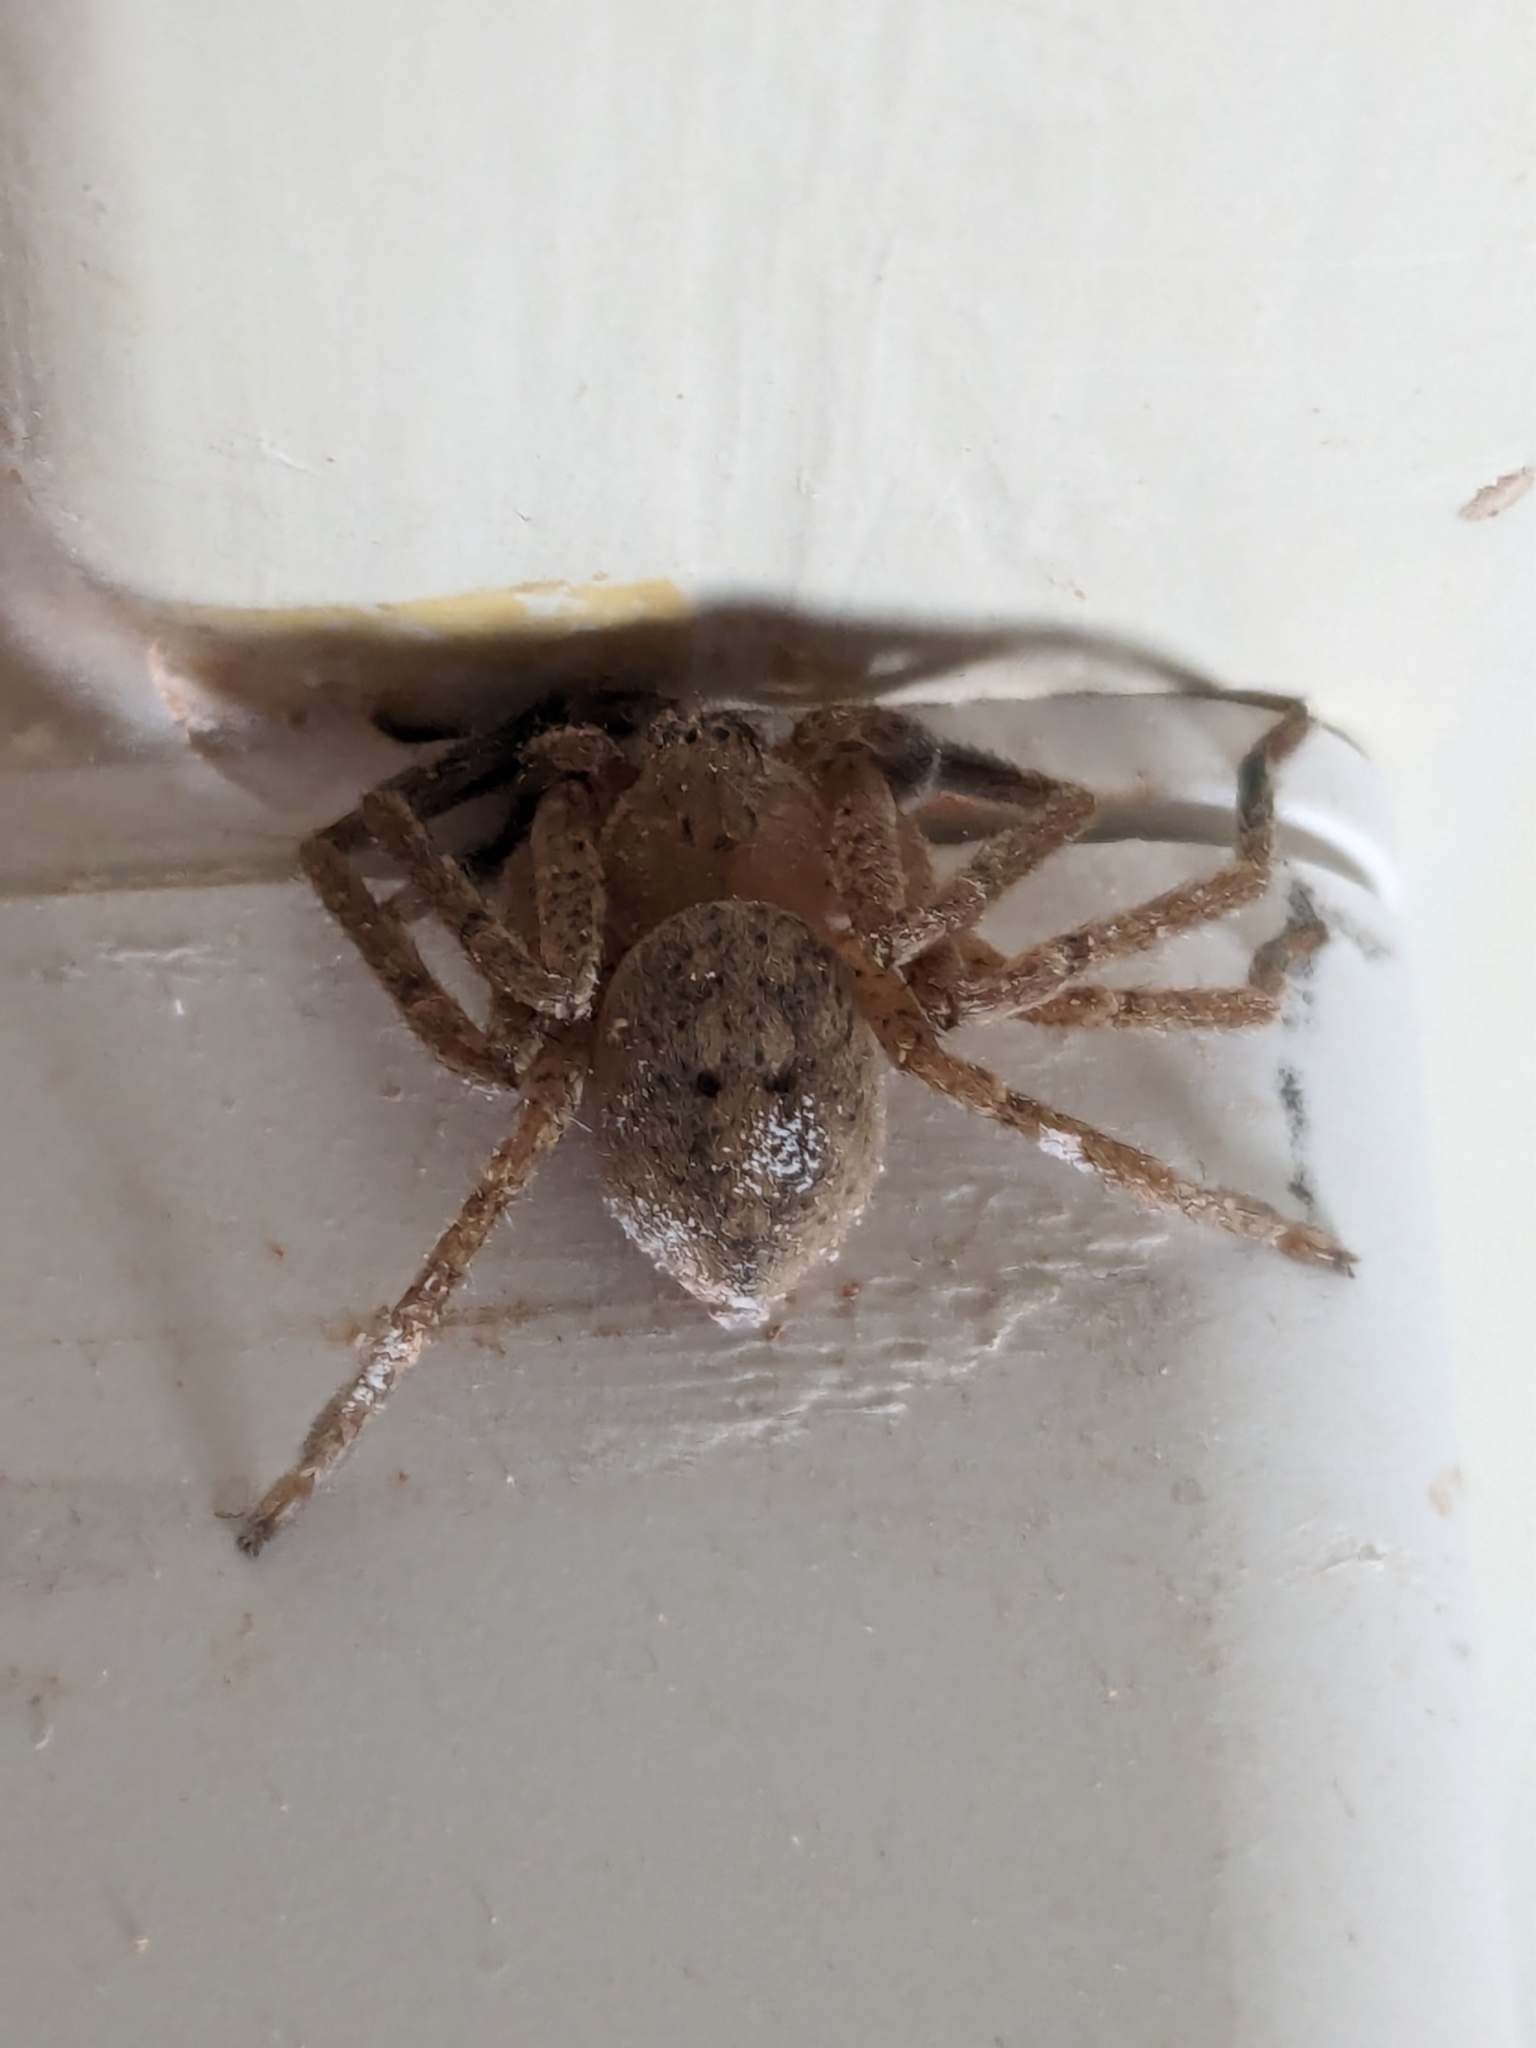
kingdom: Animalia
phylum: Arthropoda
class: Arachnida
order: Araneae
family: Sparassidae
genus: Olios
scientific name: Olios argelasius
